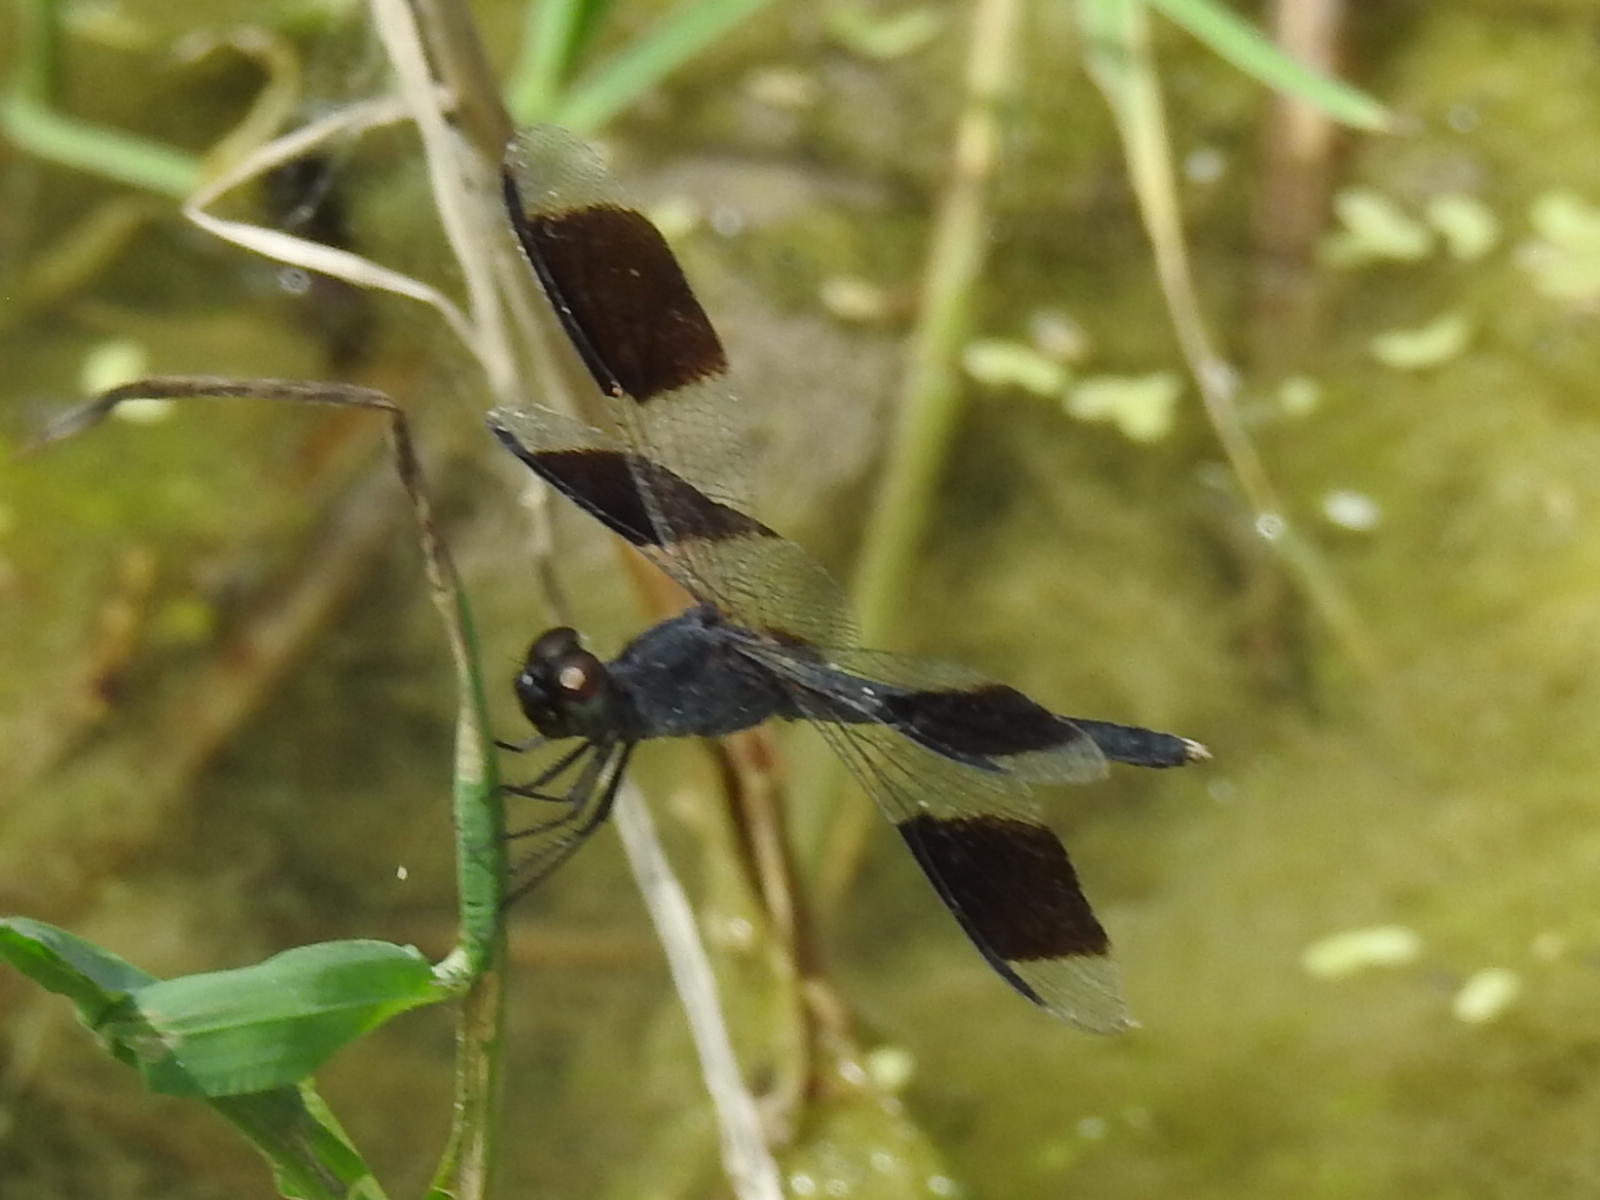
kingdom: Animalia
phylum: Arthropoda
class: Insecta
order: Odonata
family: Libellulidae
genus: Erythrodiplax
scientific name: Erythrodiplax umbrata
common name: Band-winged dragonlet
